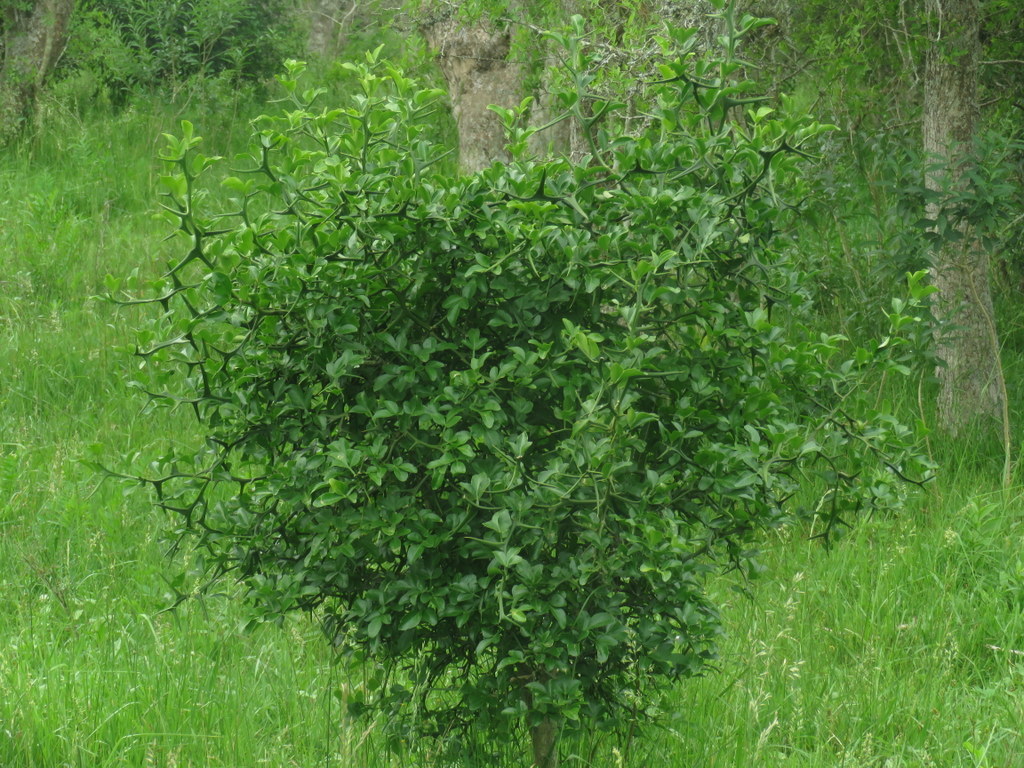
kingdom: Plantae
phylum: Tracheophyta
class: Magnoliopsida
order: Sapindales
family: Rutaceae
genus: Citrus
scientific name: Citrus trifoliata
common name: Japanese bitter-orange
